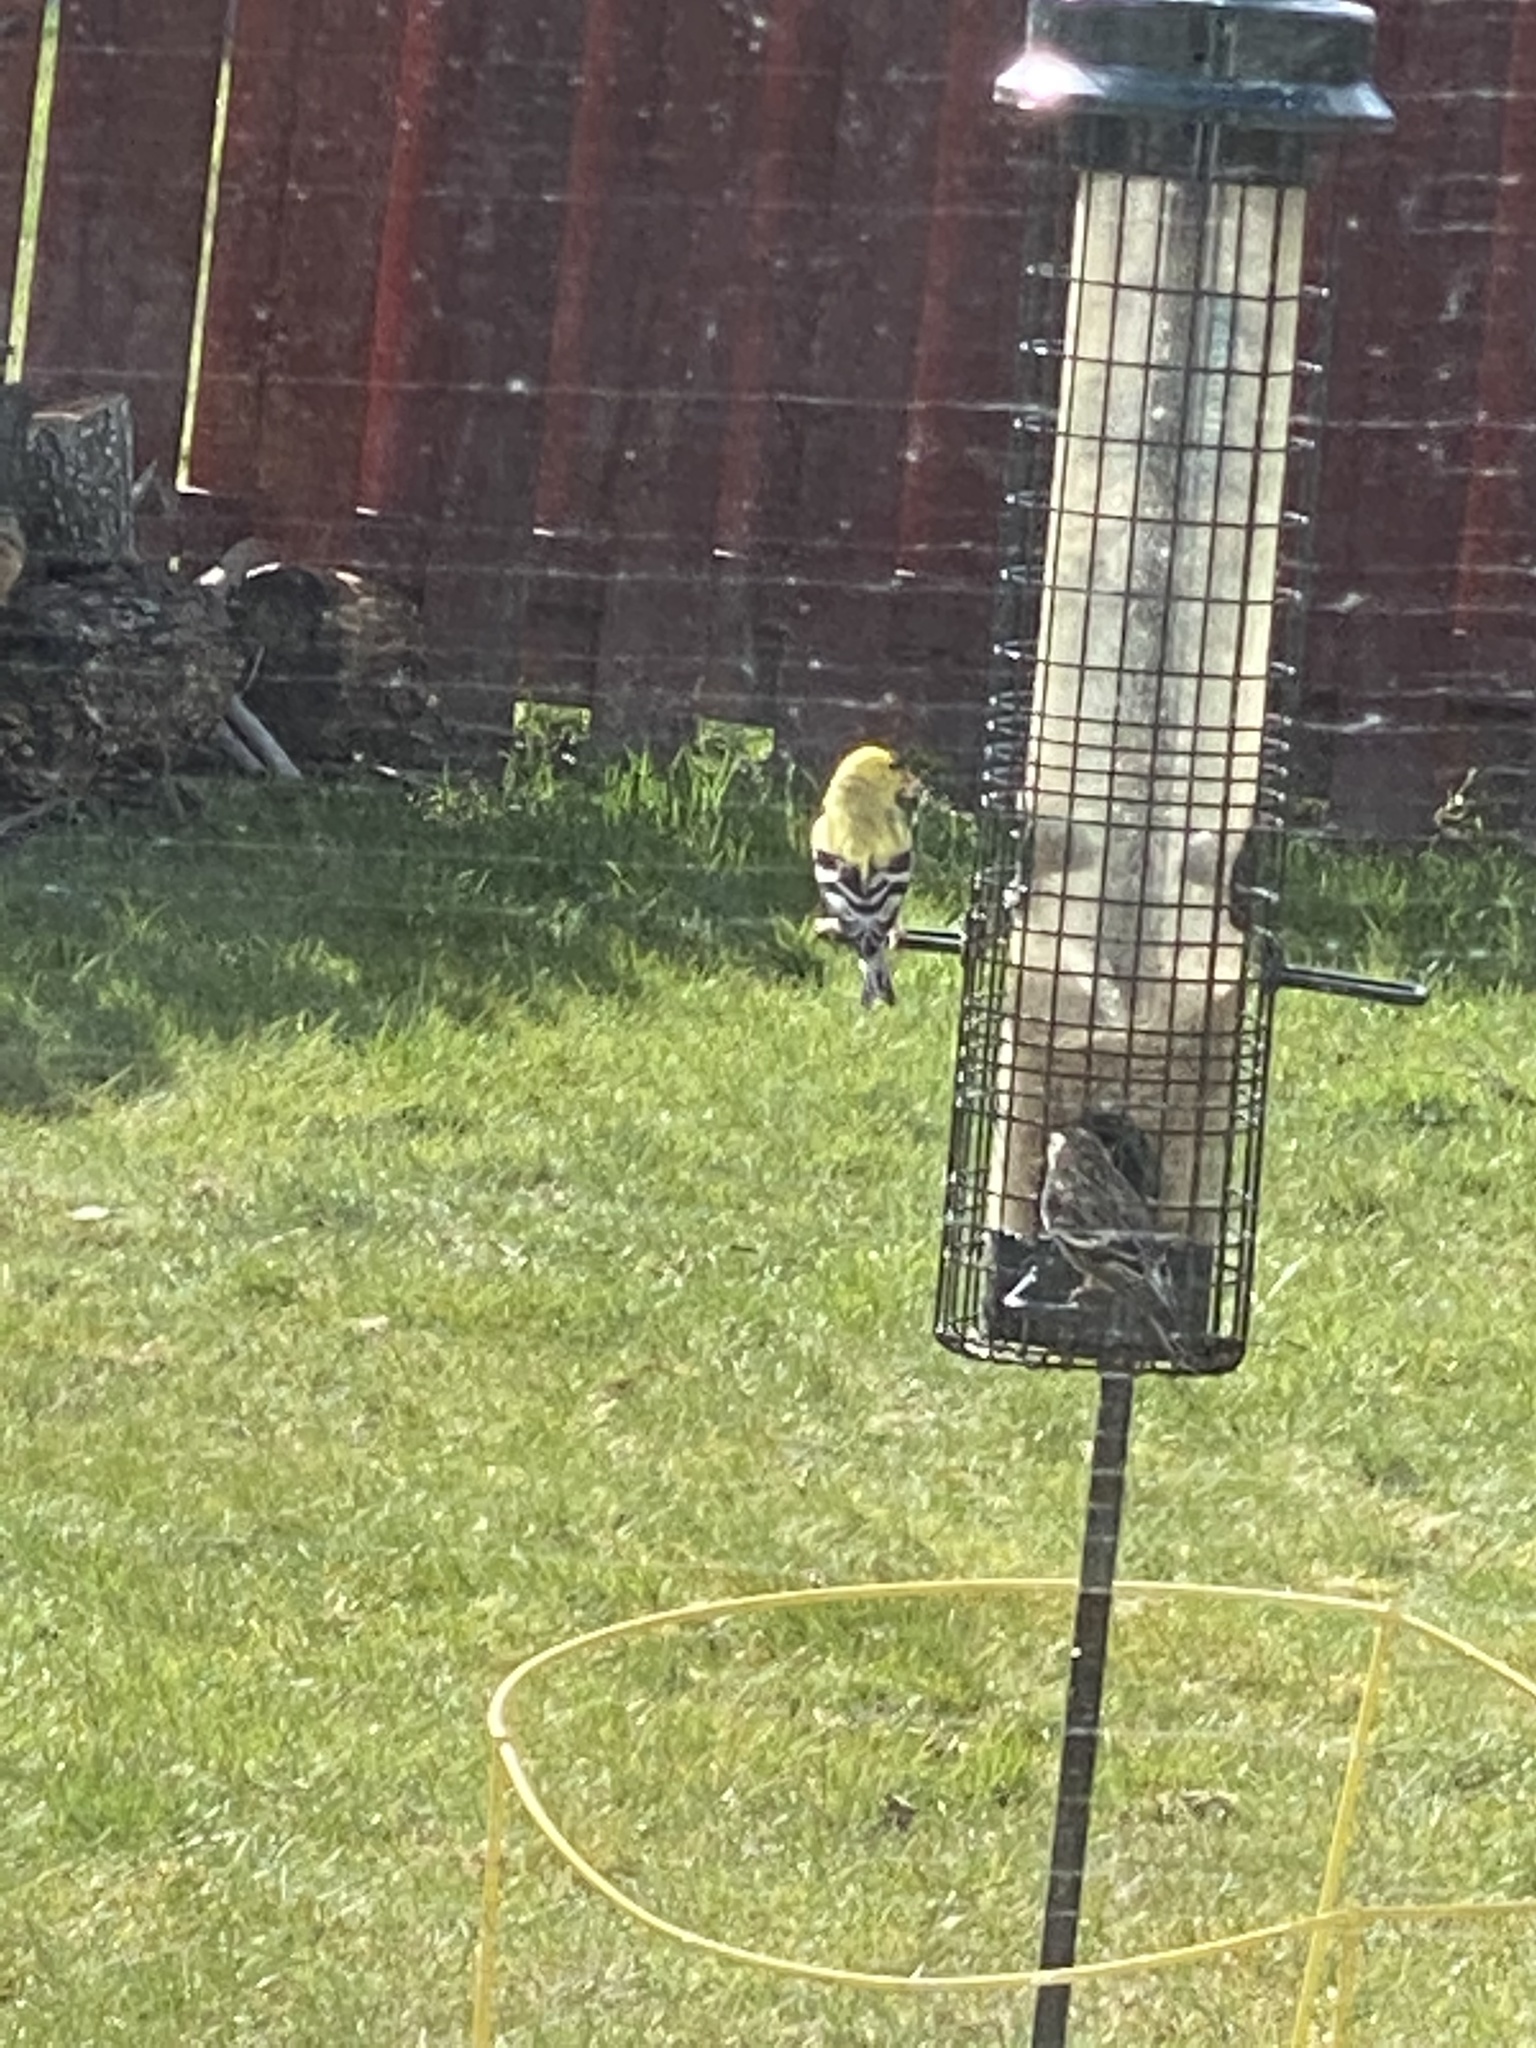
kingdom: Animalia
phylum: Chordata
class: Aves
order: Passeriformes
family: Fringillidae
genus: Spinus
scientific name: Spinus tristis
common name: American goldfinch
